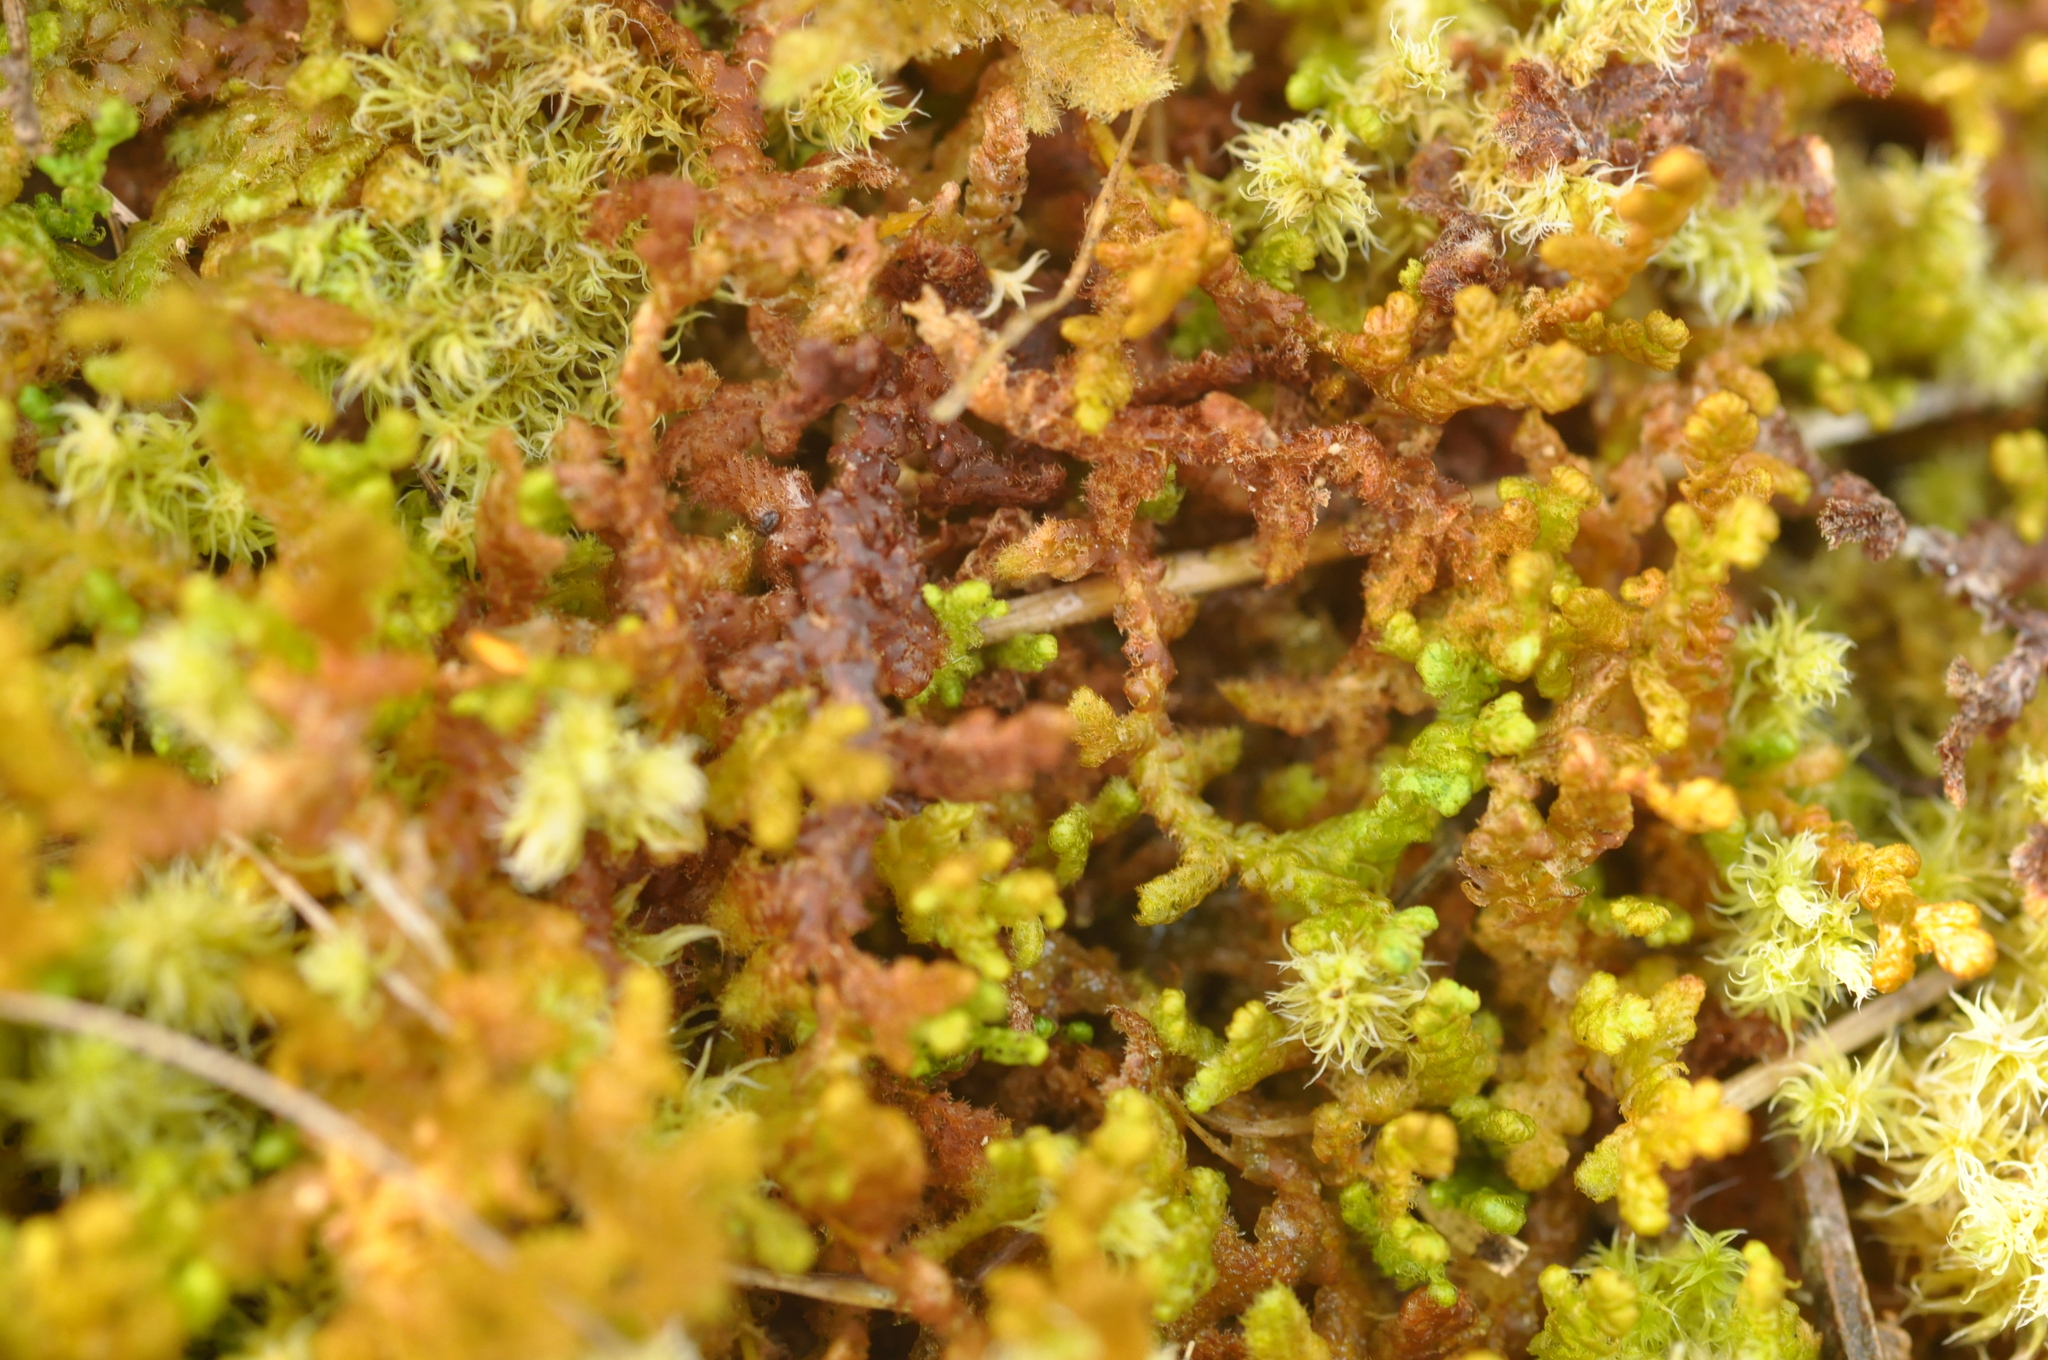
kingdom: Plantae
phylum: Marchantiophyta
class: Jungermanniopsida
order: Ptilidiales
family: Ptilidiaceae
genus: Ptilidium
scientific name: Ptilidium ciliare
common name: Ciliate fringewort
